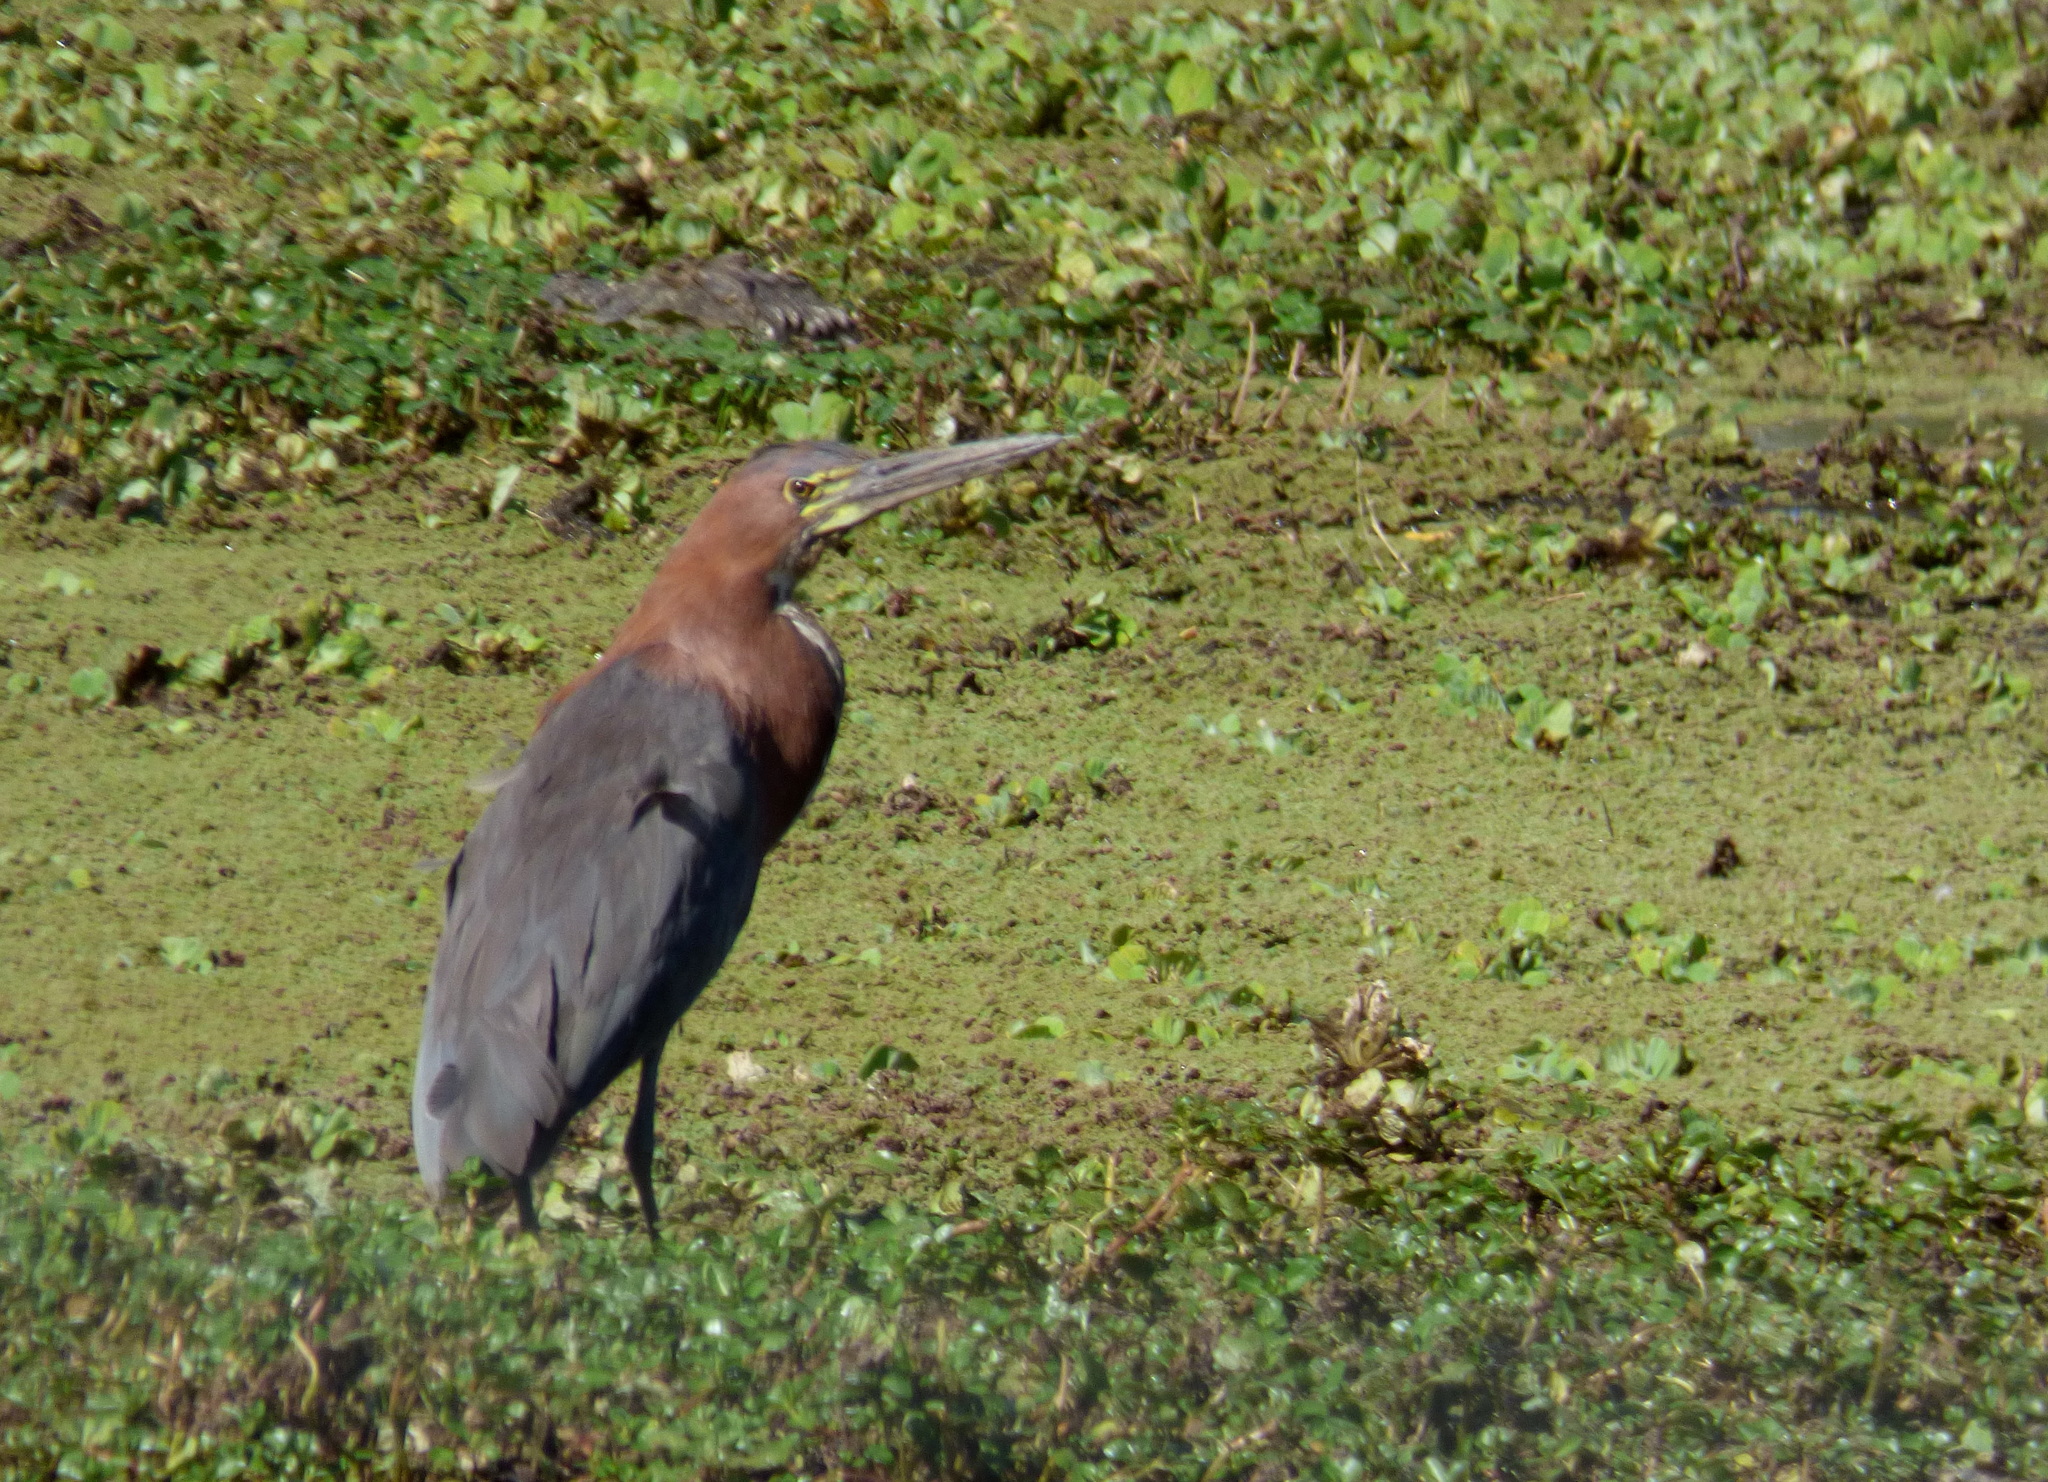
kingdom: Animalia
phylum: Chordata
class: Aves
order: Pelecaniformes
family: Ardeidae
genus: Tigrisoma
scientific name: Tigrisoma lineatum
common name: Rufescent tiger-heron
